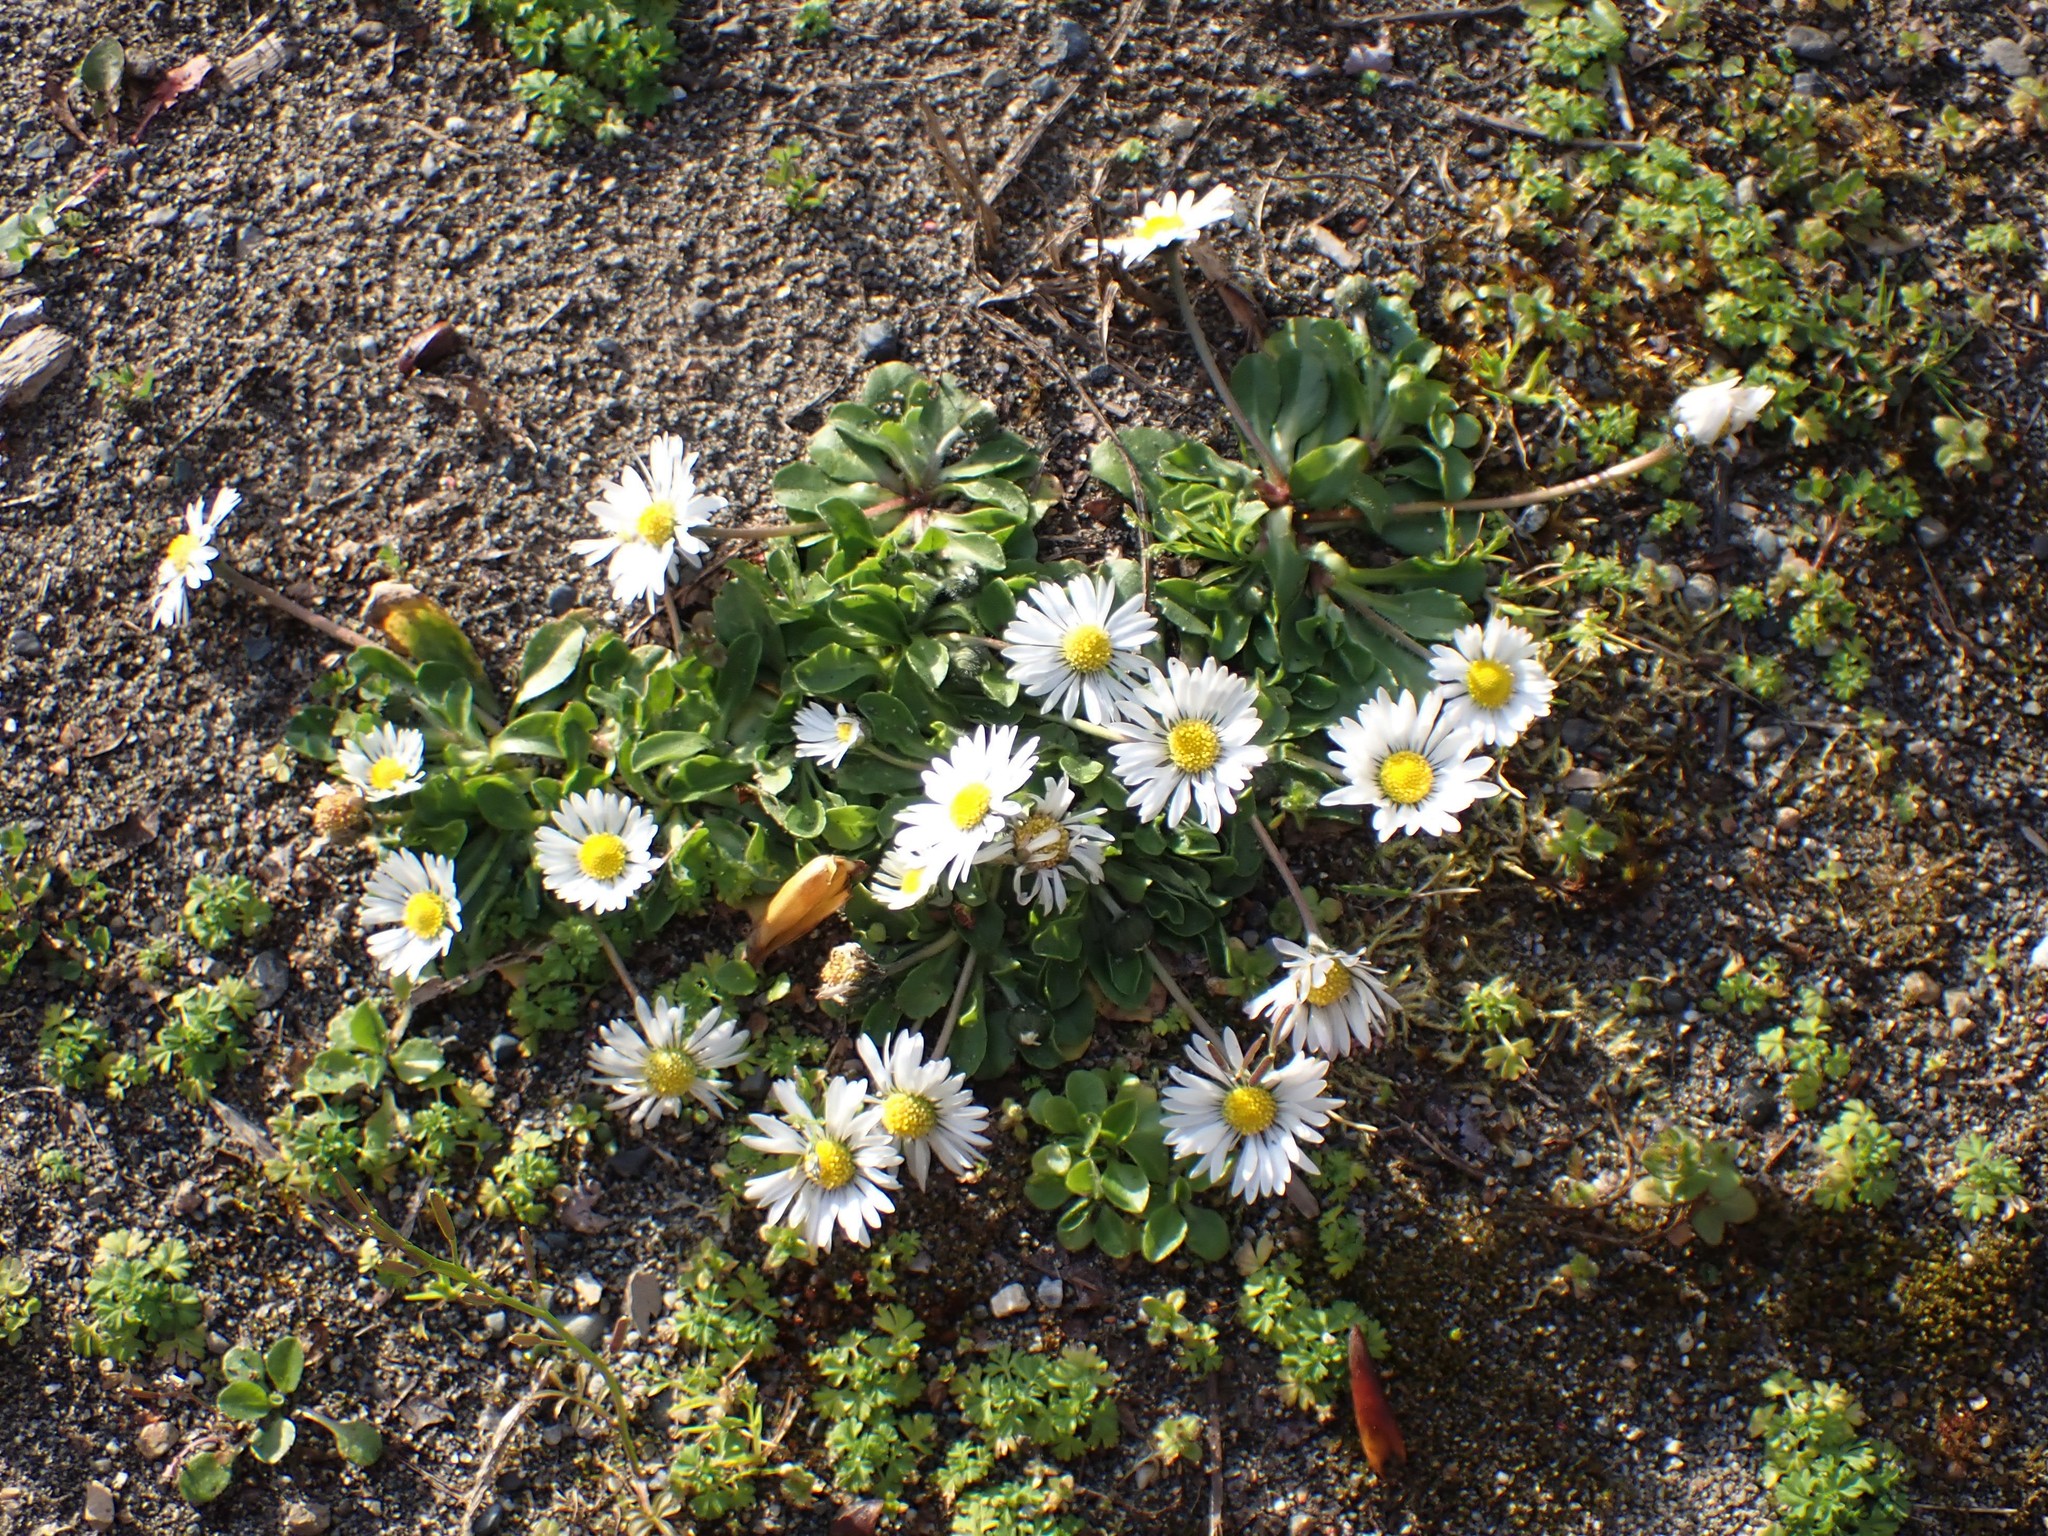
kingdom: Plantae
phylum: Tracheophyta
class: Magnoliopsida
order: Asterales
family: Asteraceae
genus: Bellis
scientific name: Bellis perennis
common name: Lawndaisy
